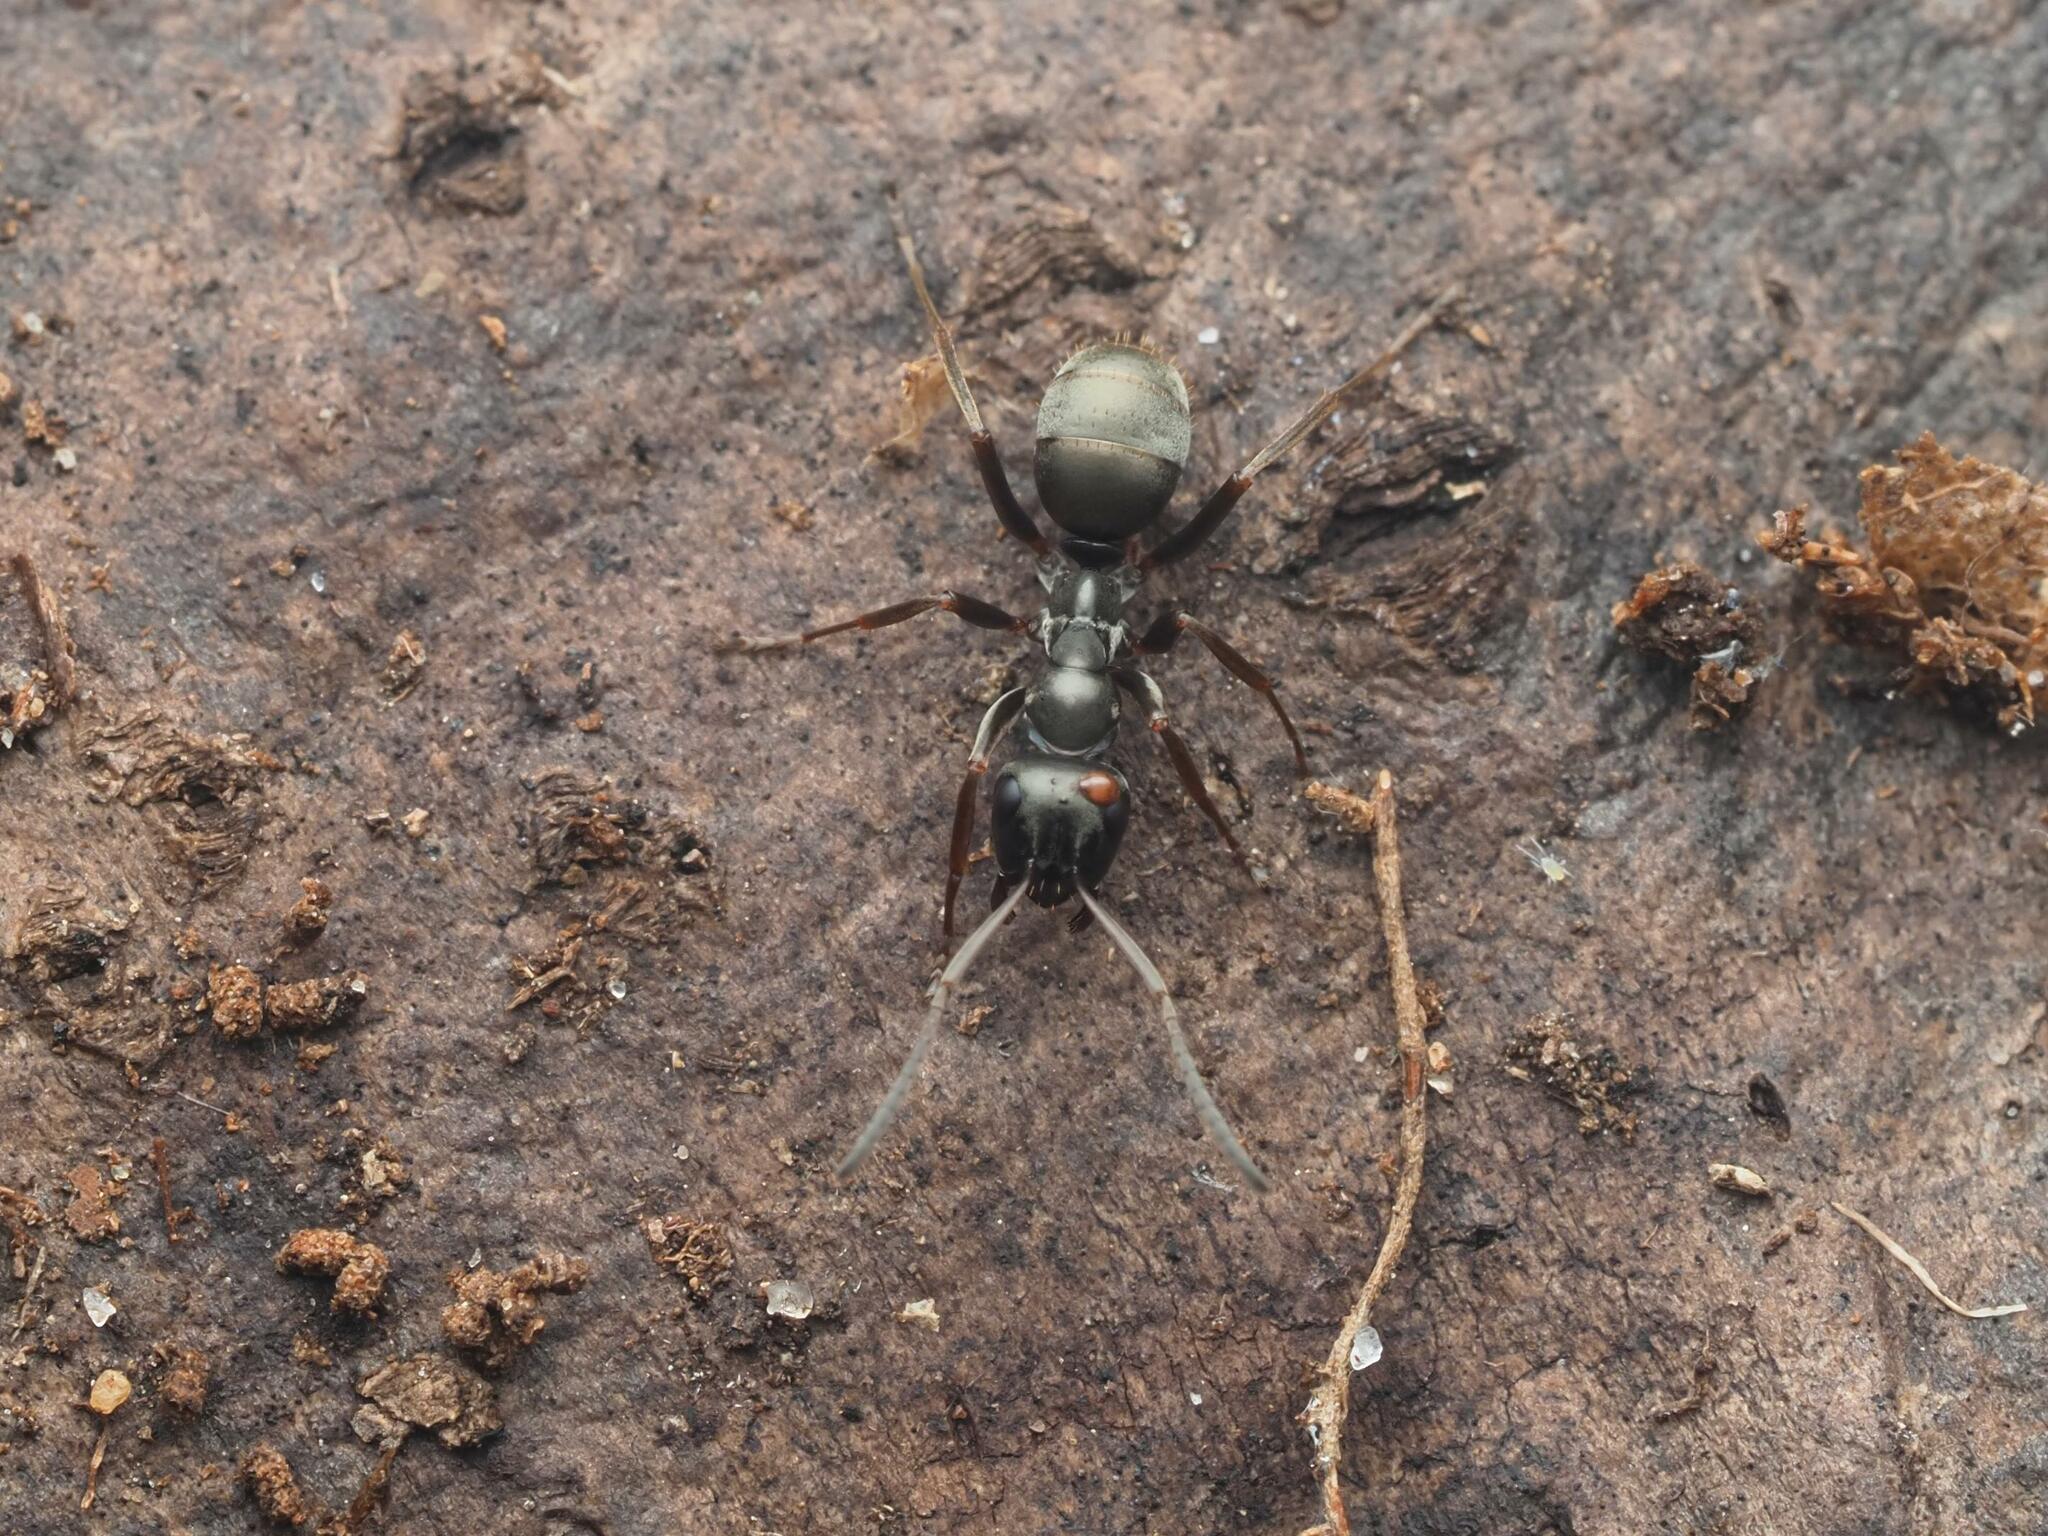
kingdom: Animalia
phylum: Arthropoda
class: Insecta
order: Hymenoptera
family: Formicidae
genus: Formica
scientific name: Formica fusca
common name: Silky ant
